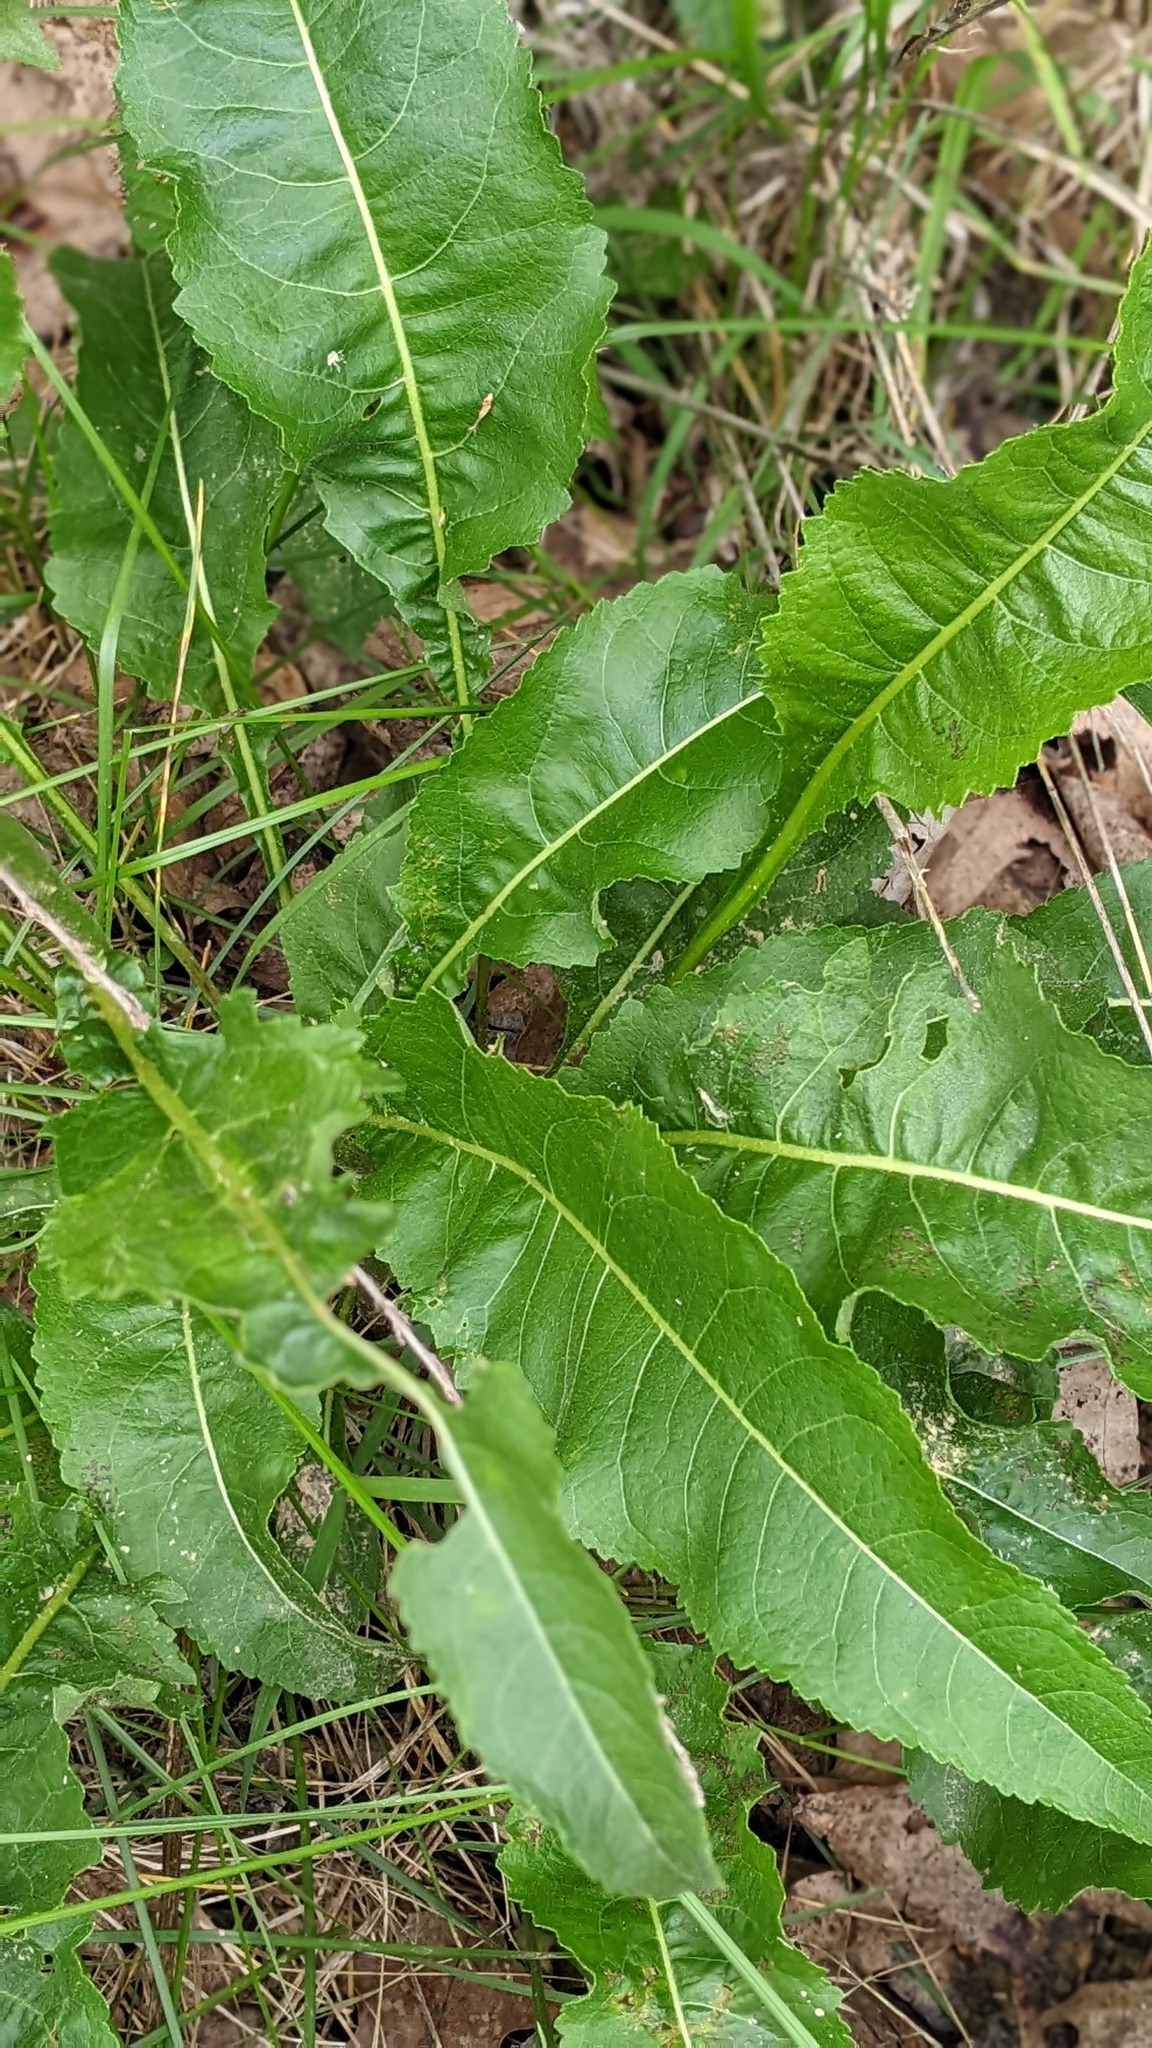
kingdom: Plantae
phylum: Tracheophyta
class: Magnoliopsida
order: Asterales
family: Asteraceae
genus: Parthenium
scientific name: Parthenium integrifolium
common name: American feverfew
